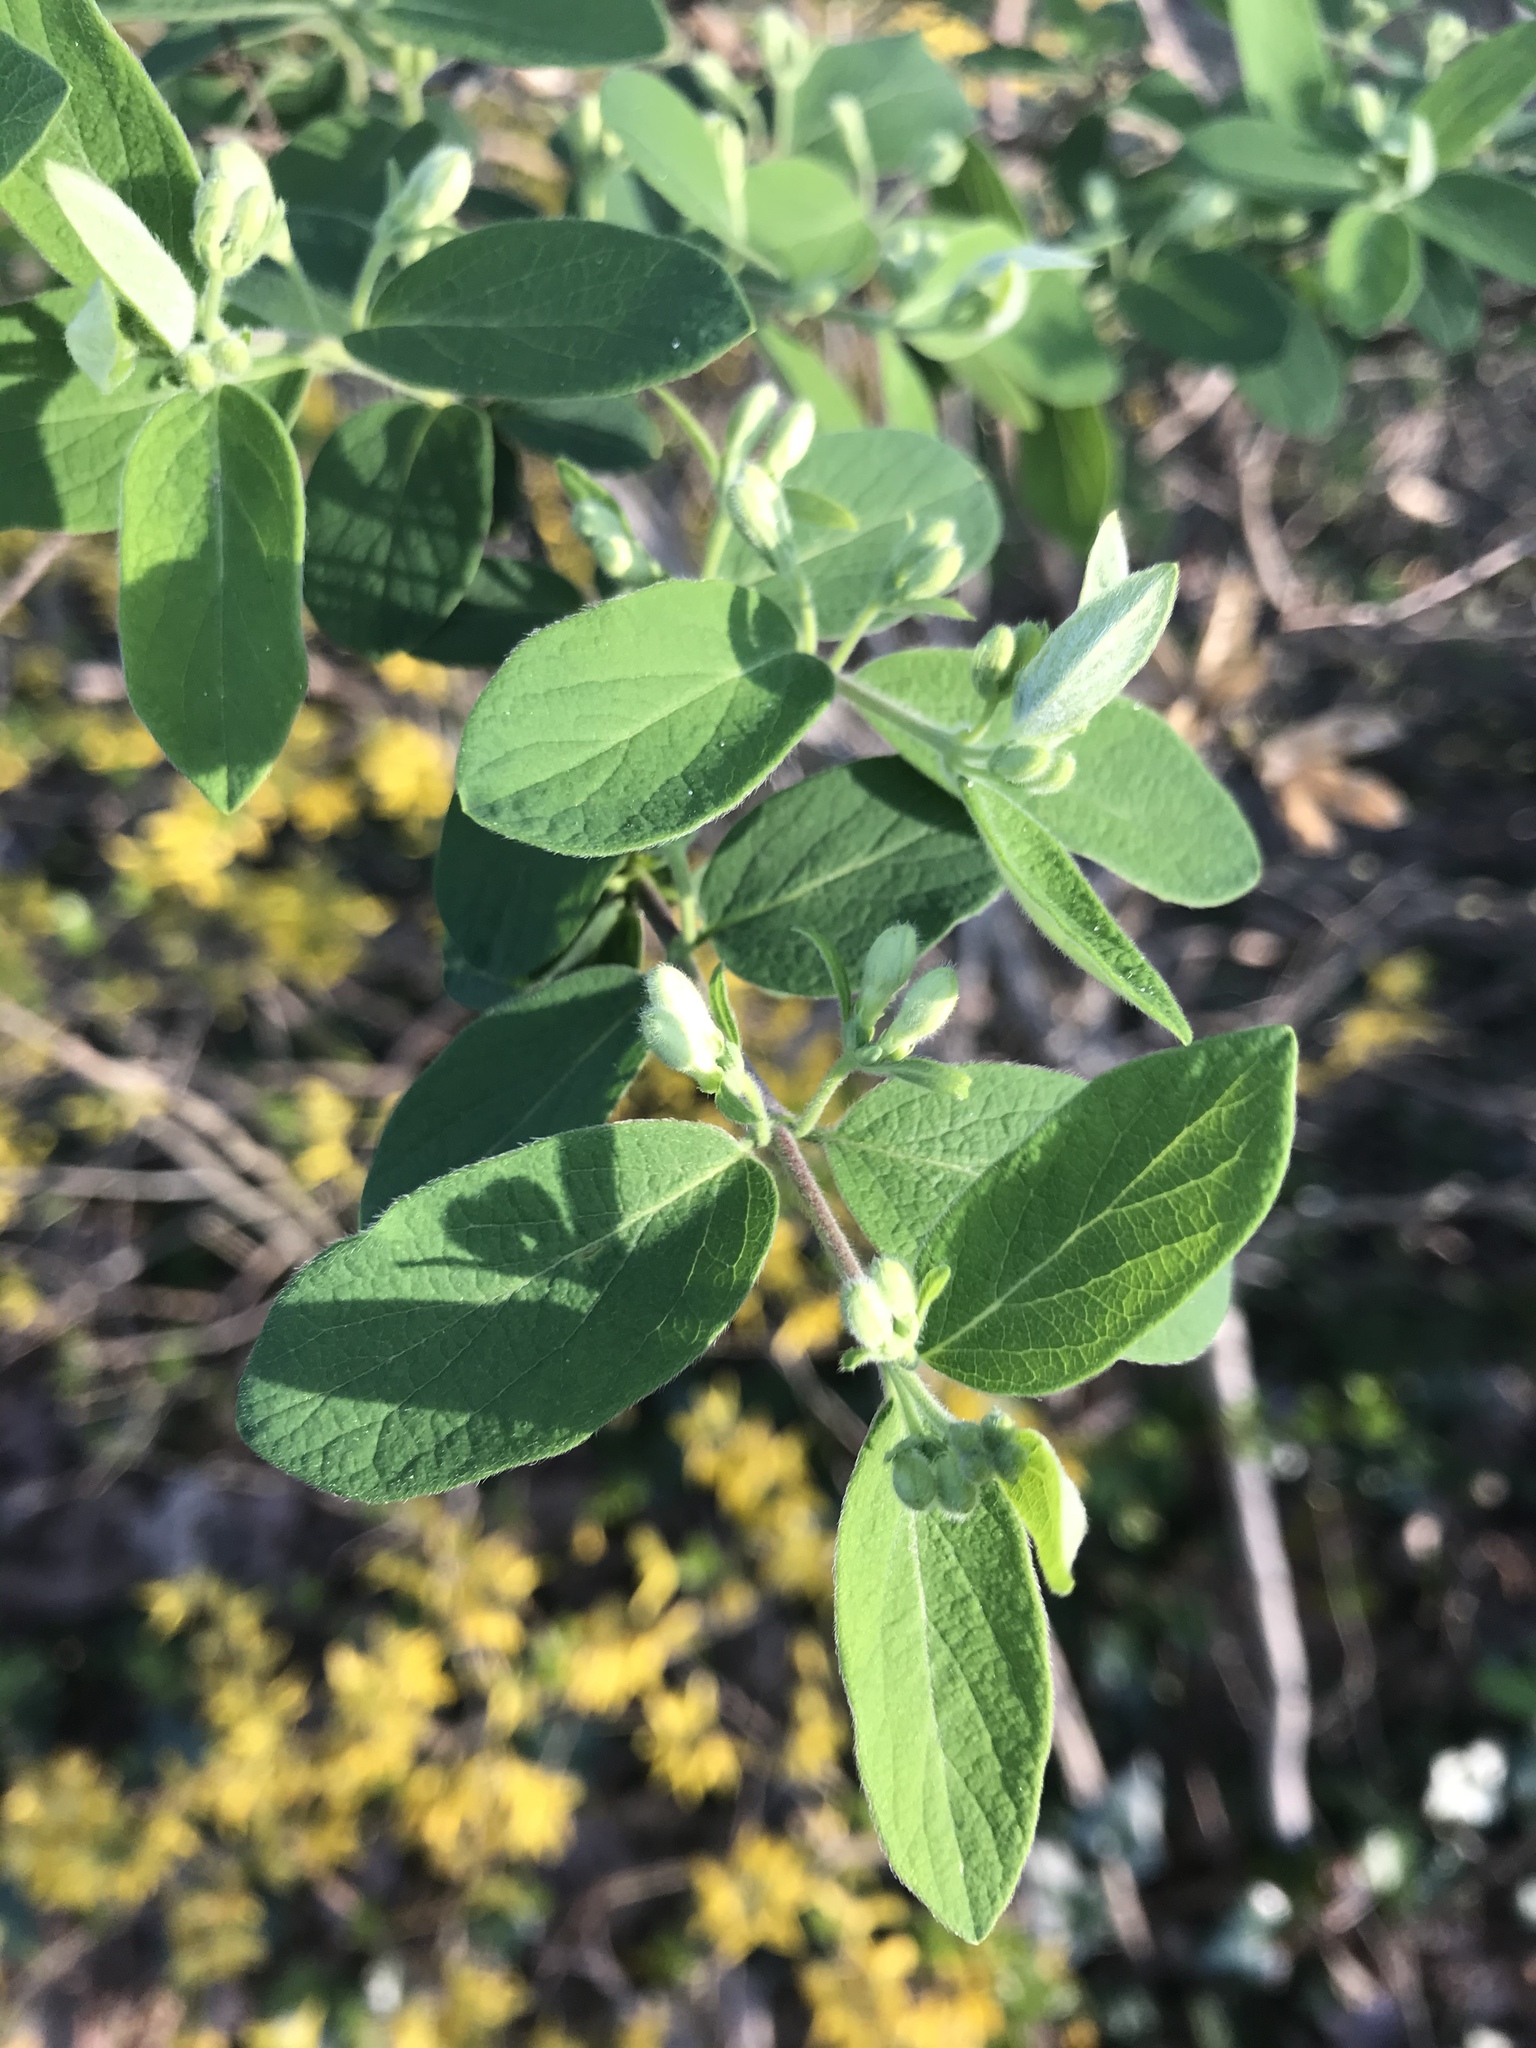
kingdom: Plantae
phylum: Tracheophyta
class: Magnoliopsida
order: Dipsacales
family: Caprifoliaceae
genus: Lonicera
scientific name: Lonicera morrowii
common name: Morrow's honeysuckle
